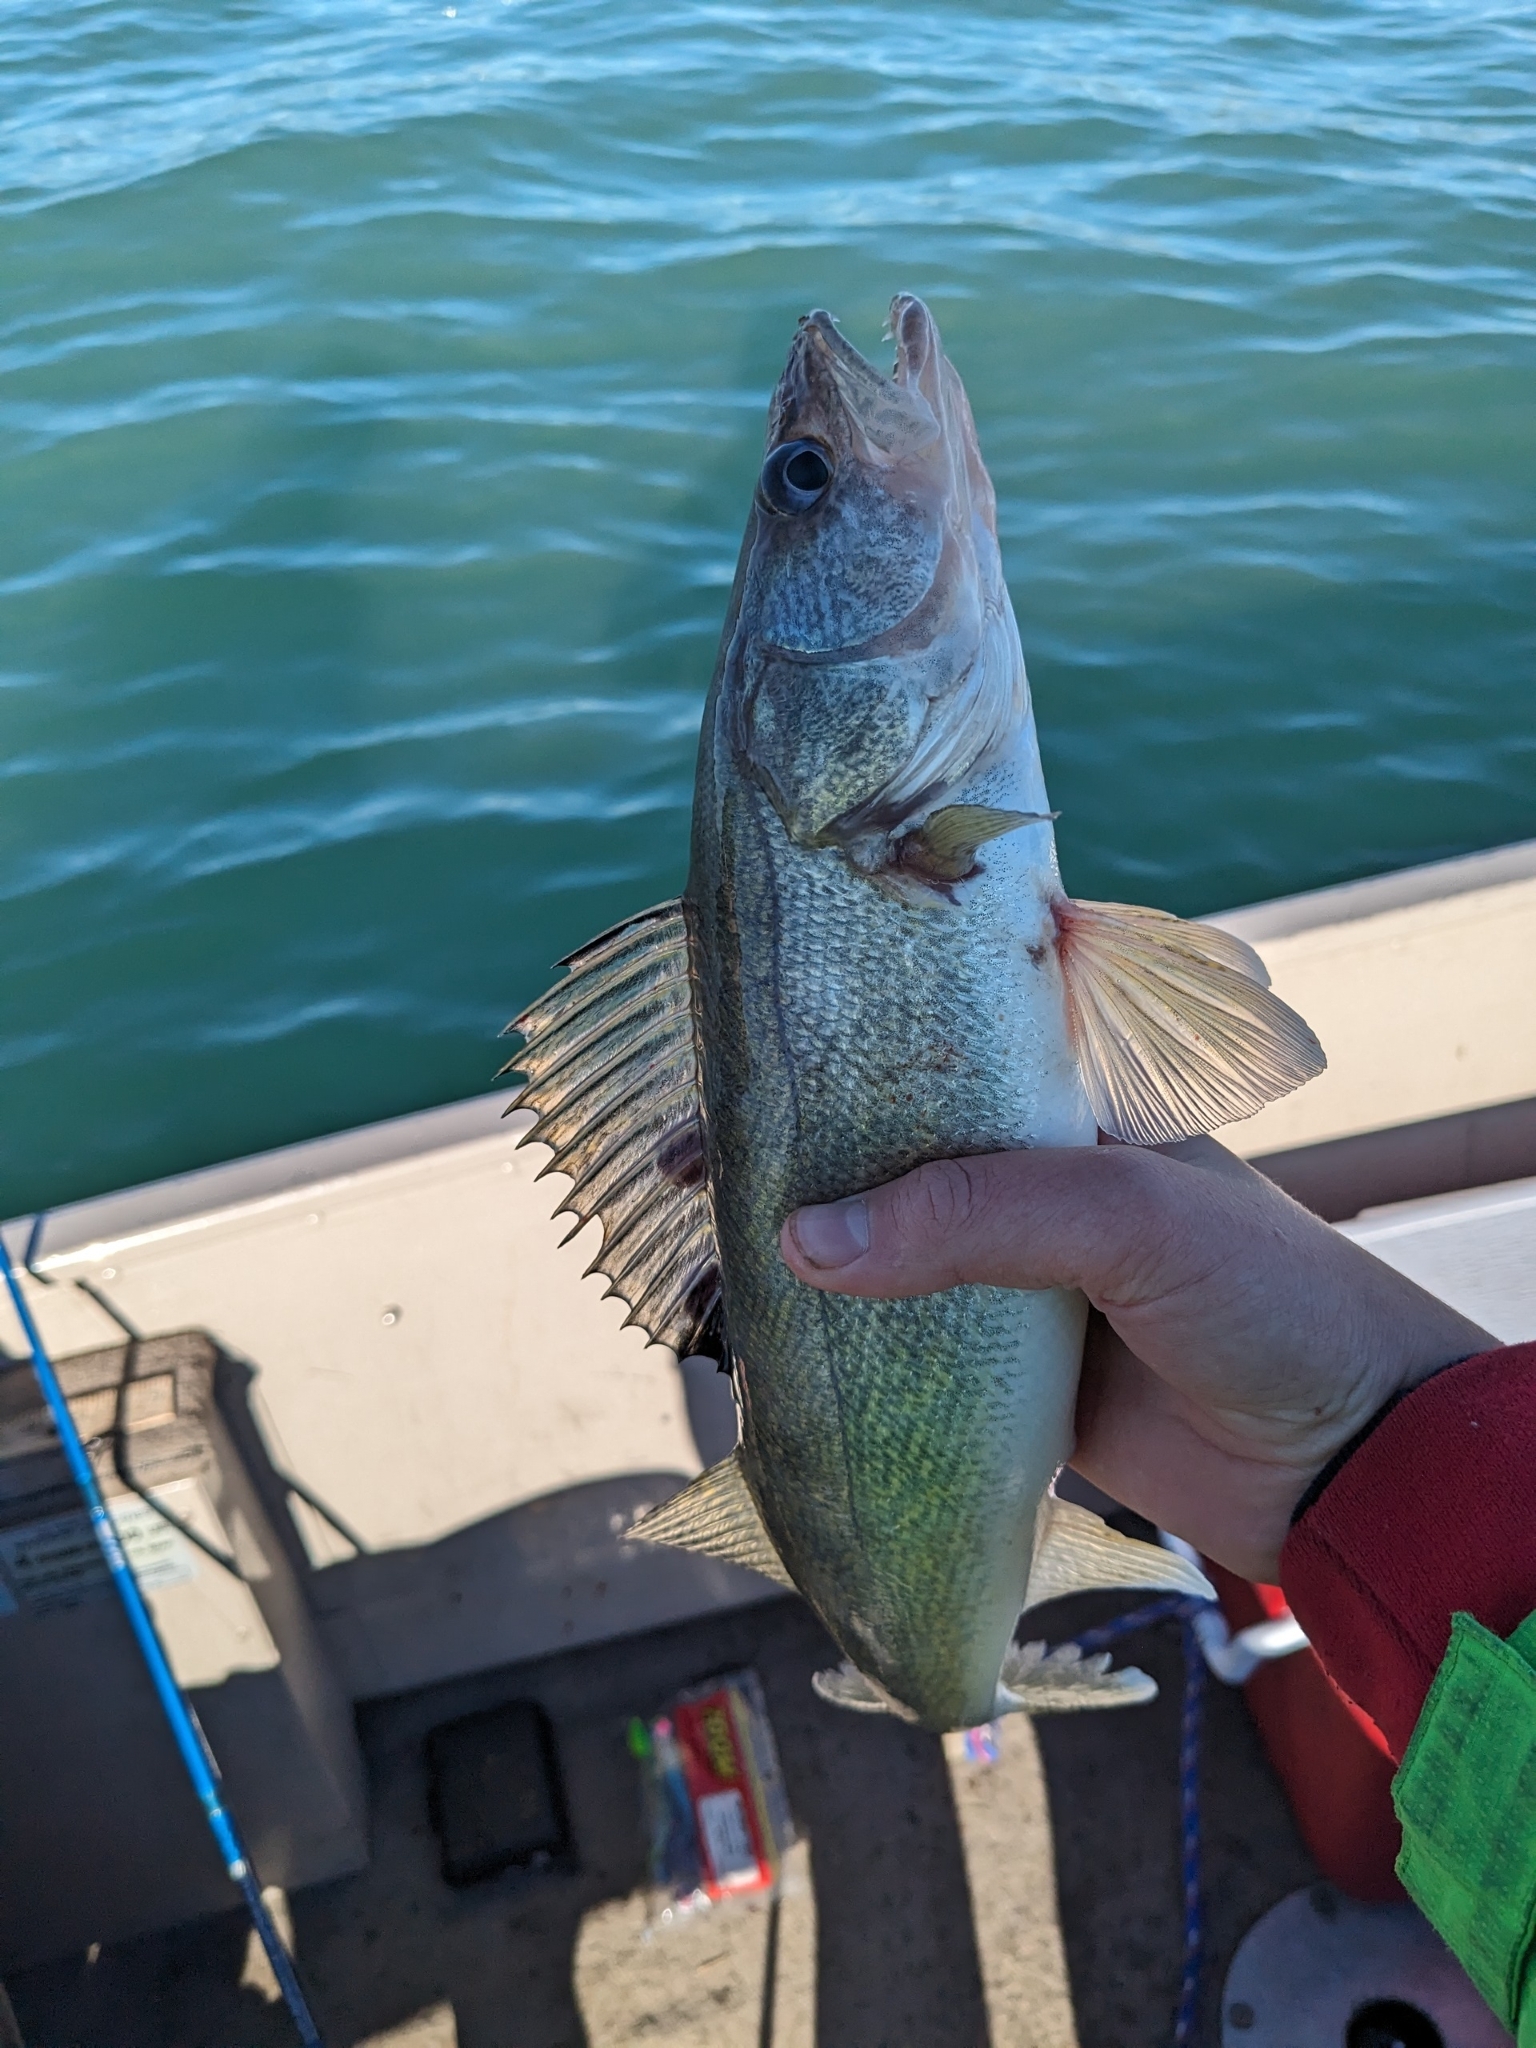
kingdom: Animalia
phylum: Chordata
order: Perciformes
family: Percidae
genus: Sander
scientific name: Sander vitreus
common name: Walleye
